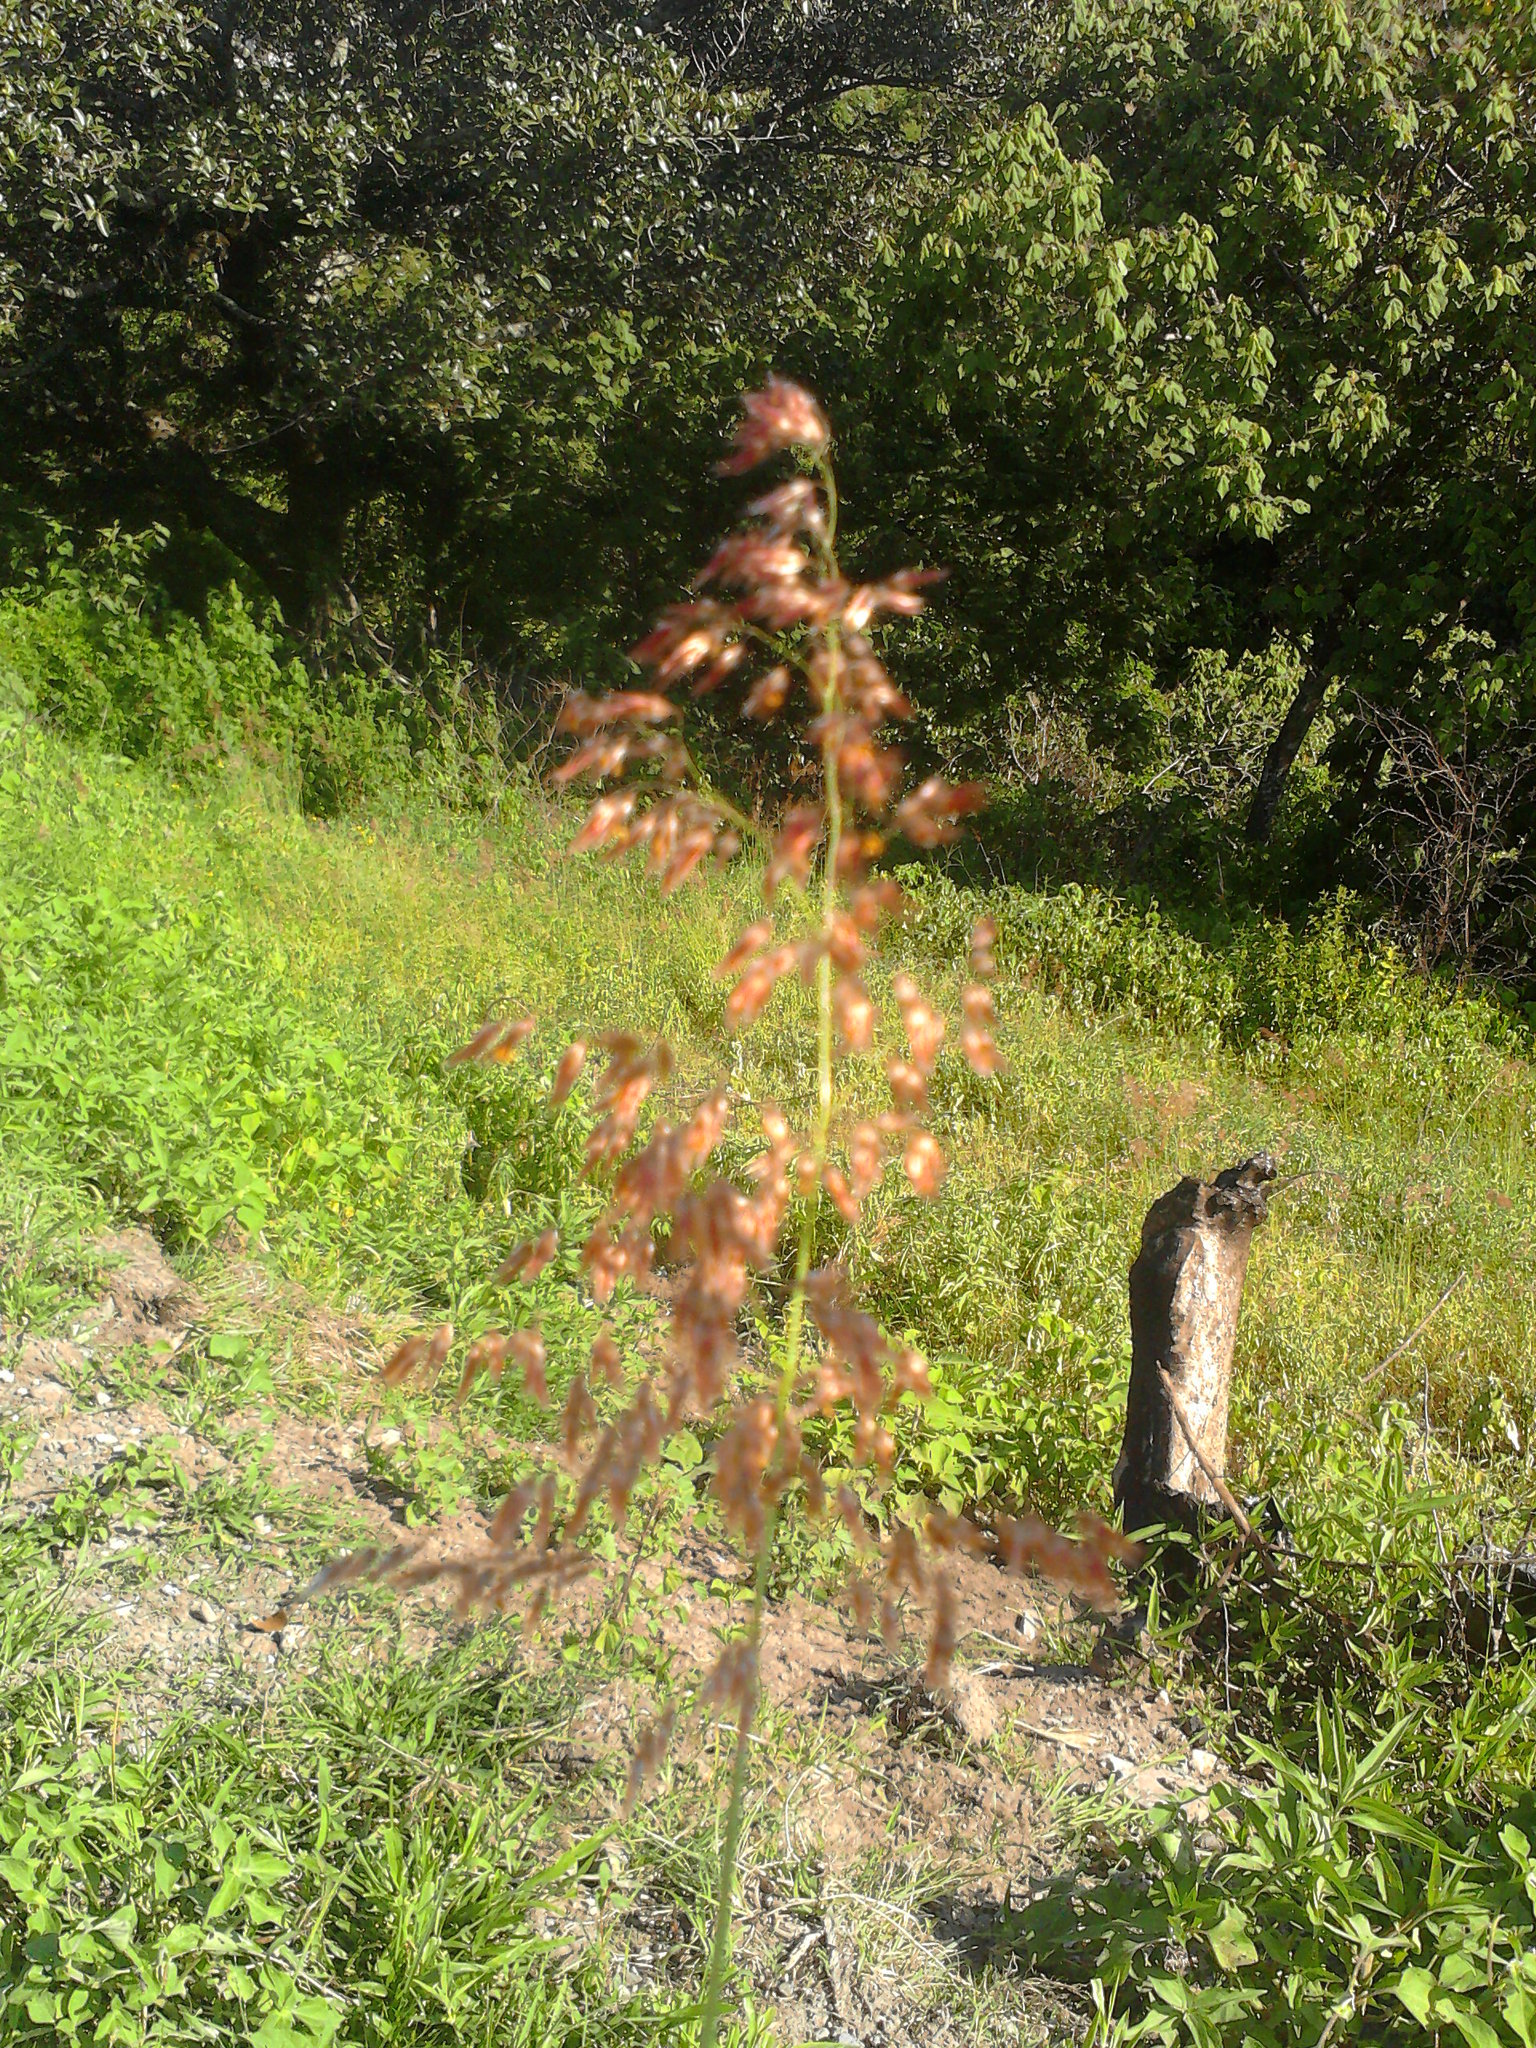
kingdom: Plantae
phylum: Tracheophyta
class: Liliopsida
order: Poales
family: Poaceae
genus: Melinis
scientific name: Melinis repens
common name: Rose natal grass
